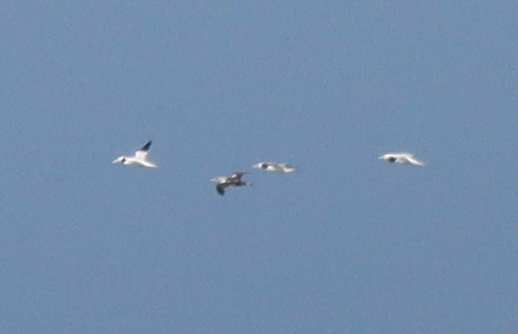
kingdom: Animalia
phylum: Chordata
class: Aves
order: Suliformes
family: Sulidae
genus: Morus
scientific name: Morus bassanus
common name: Northern gannet
